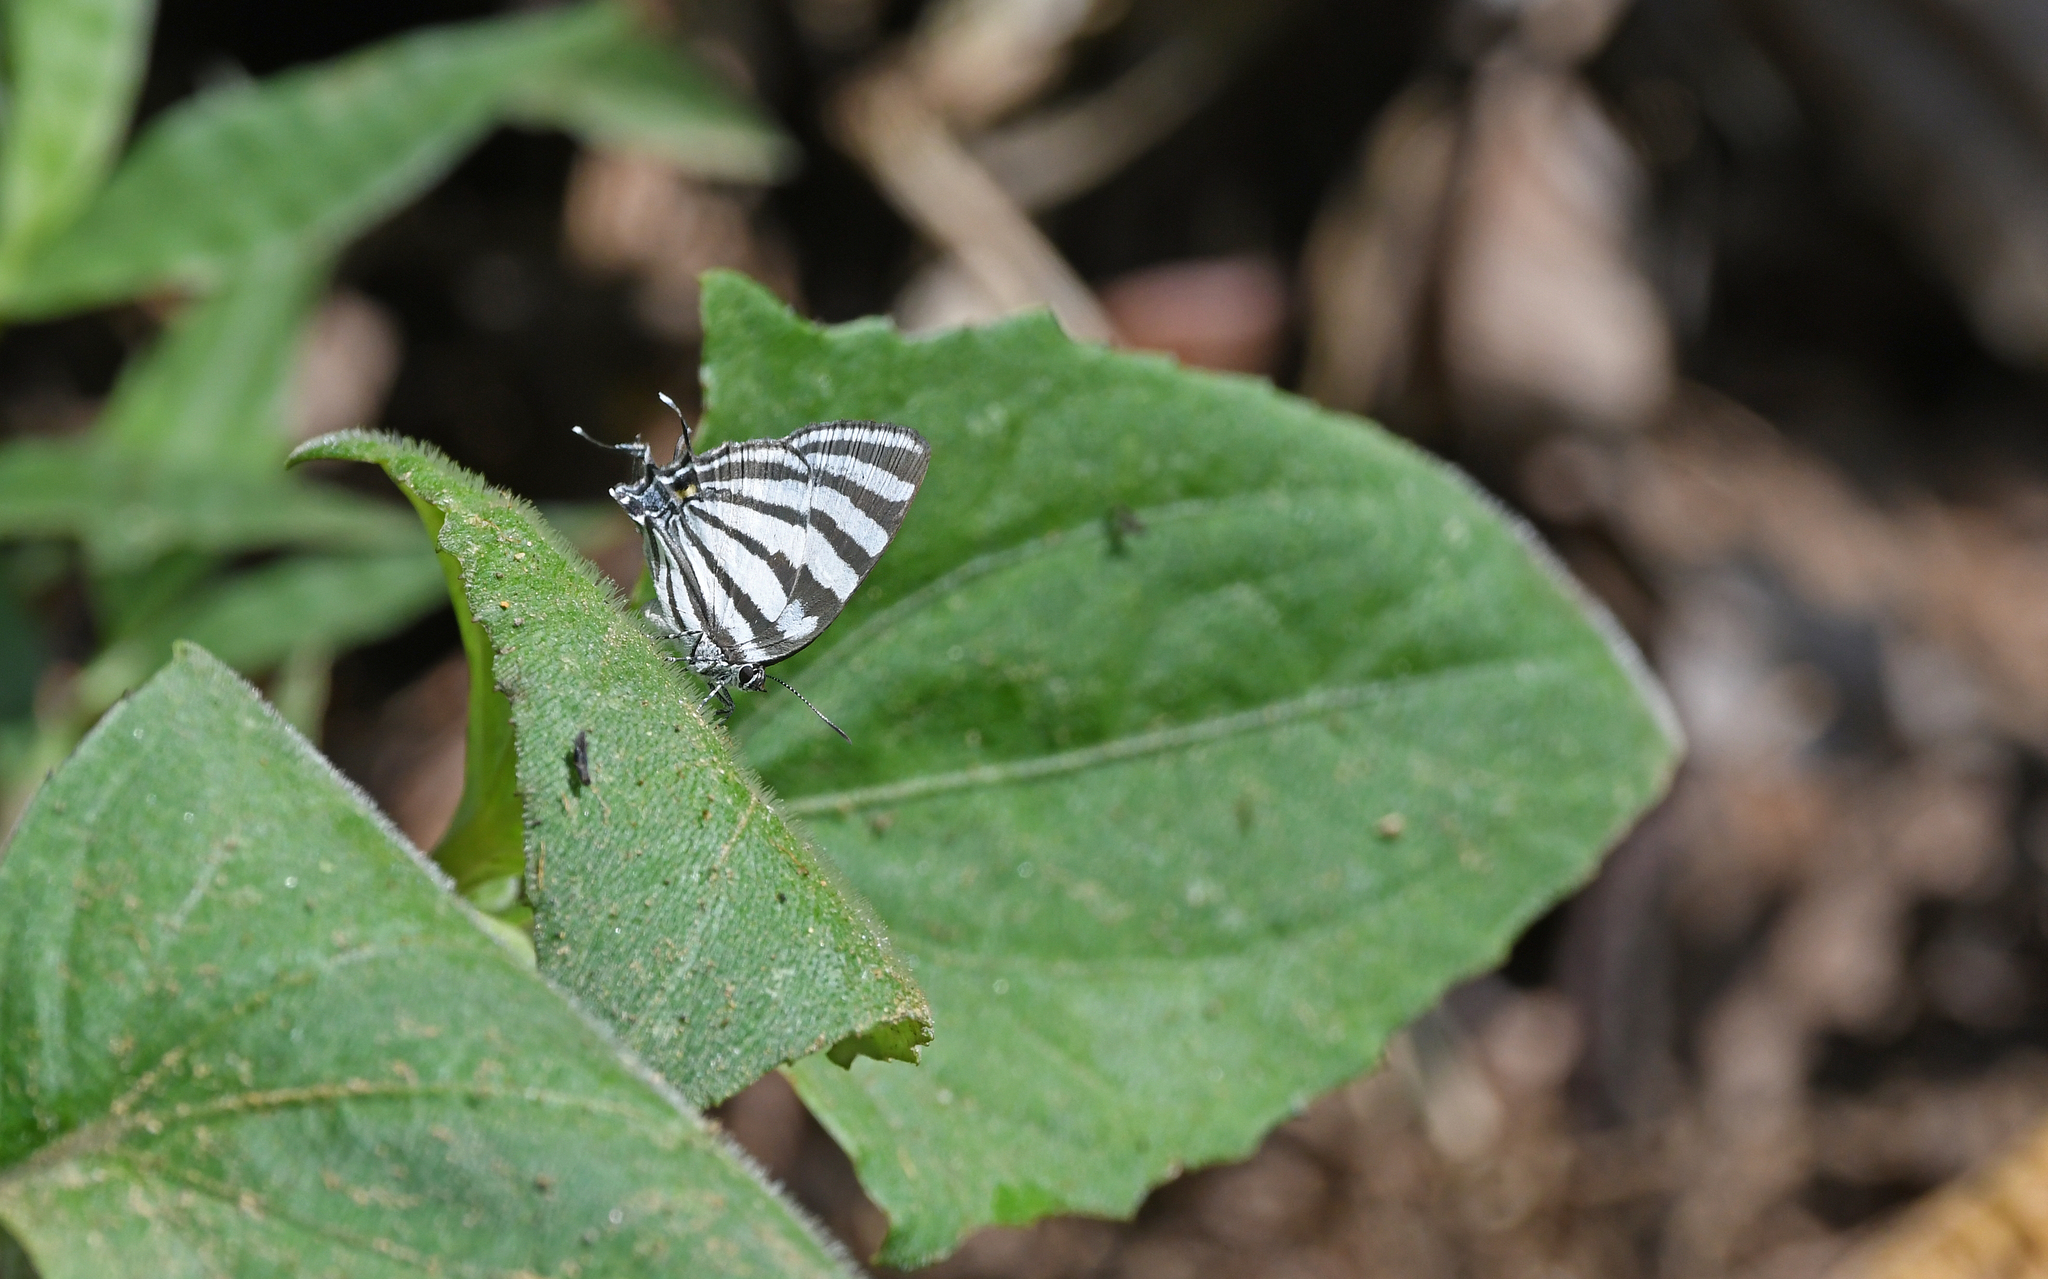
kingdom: Animalia
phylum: Arthropoda
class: Insecta
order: Lepidoptera
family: Lycaenidae
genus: Laothus
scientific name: Laothus gibberosa
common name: Great stripestreak
